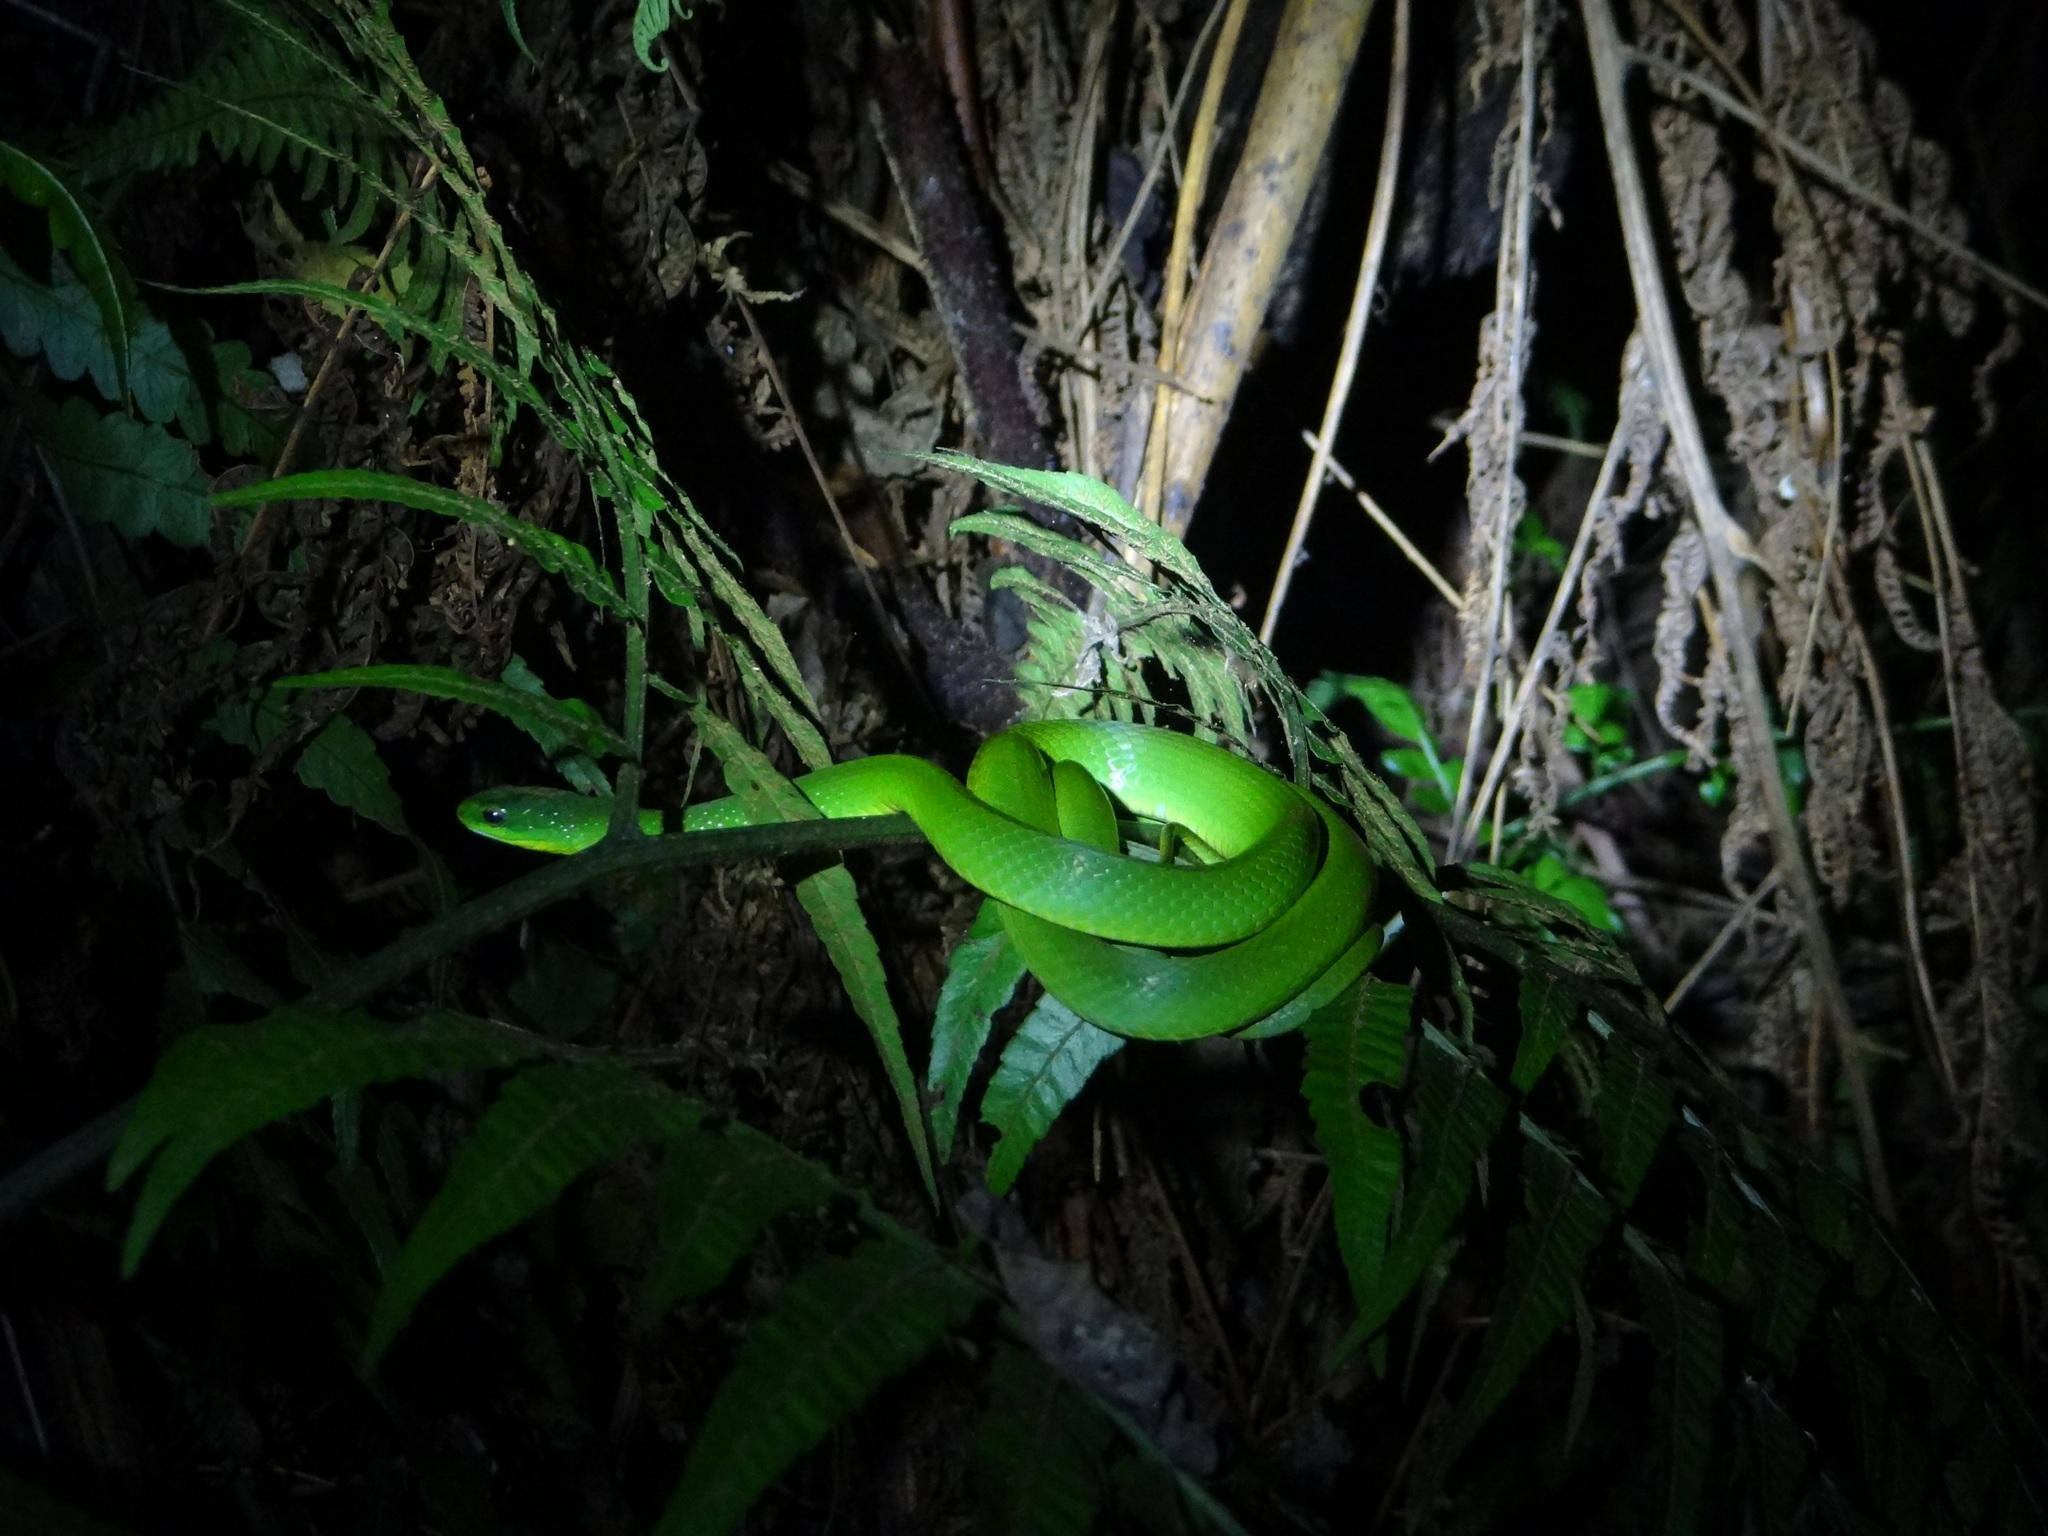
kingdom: Animalia
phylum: Chordata
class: Squamata
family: Colubridae
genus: Ptyas
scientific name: Ptyas major
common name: Chinese green snake
